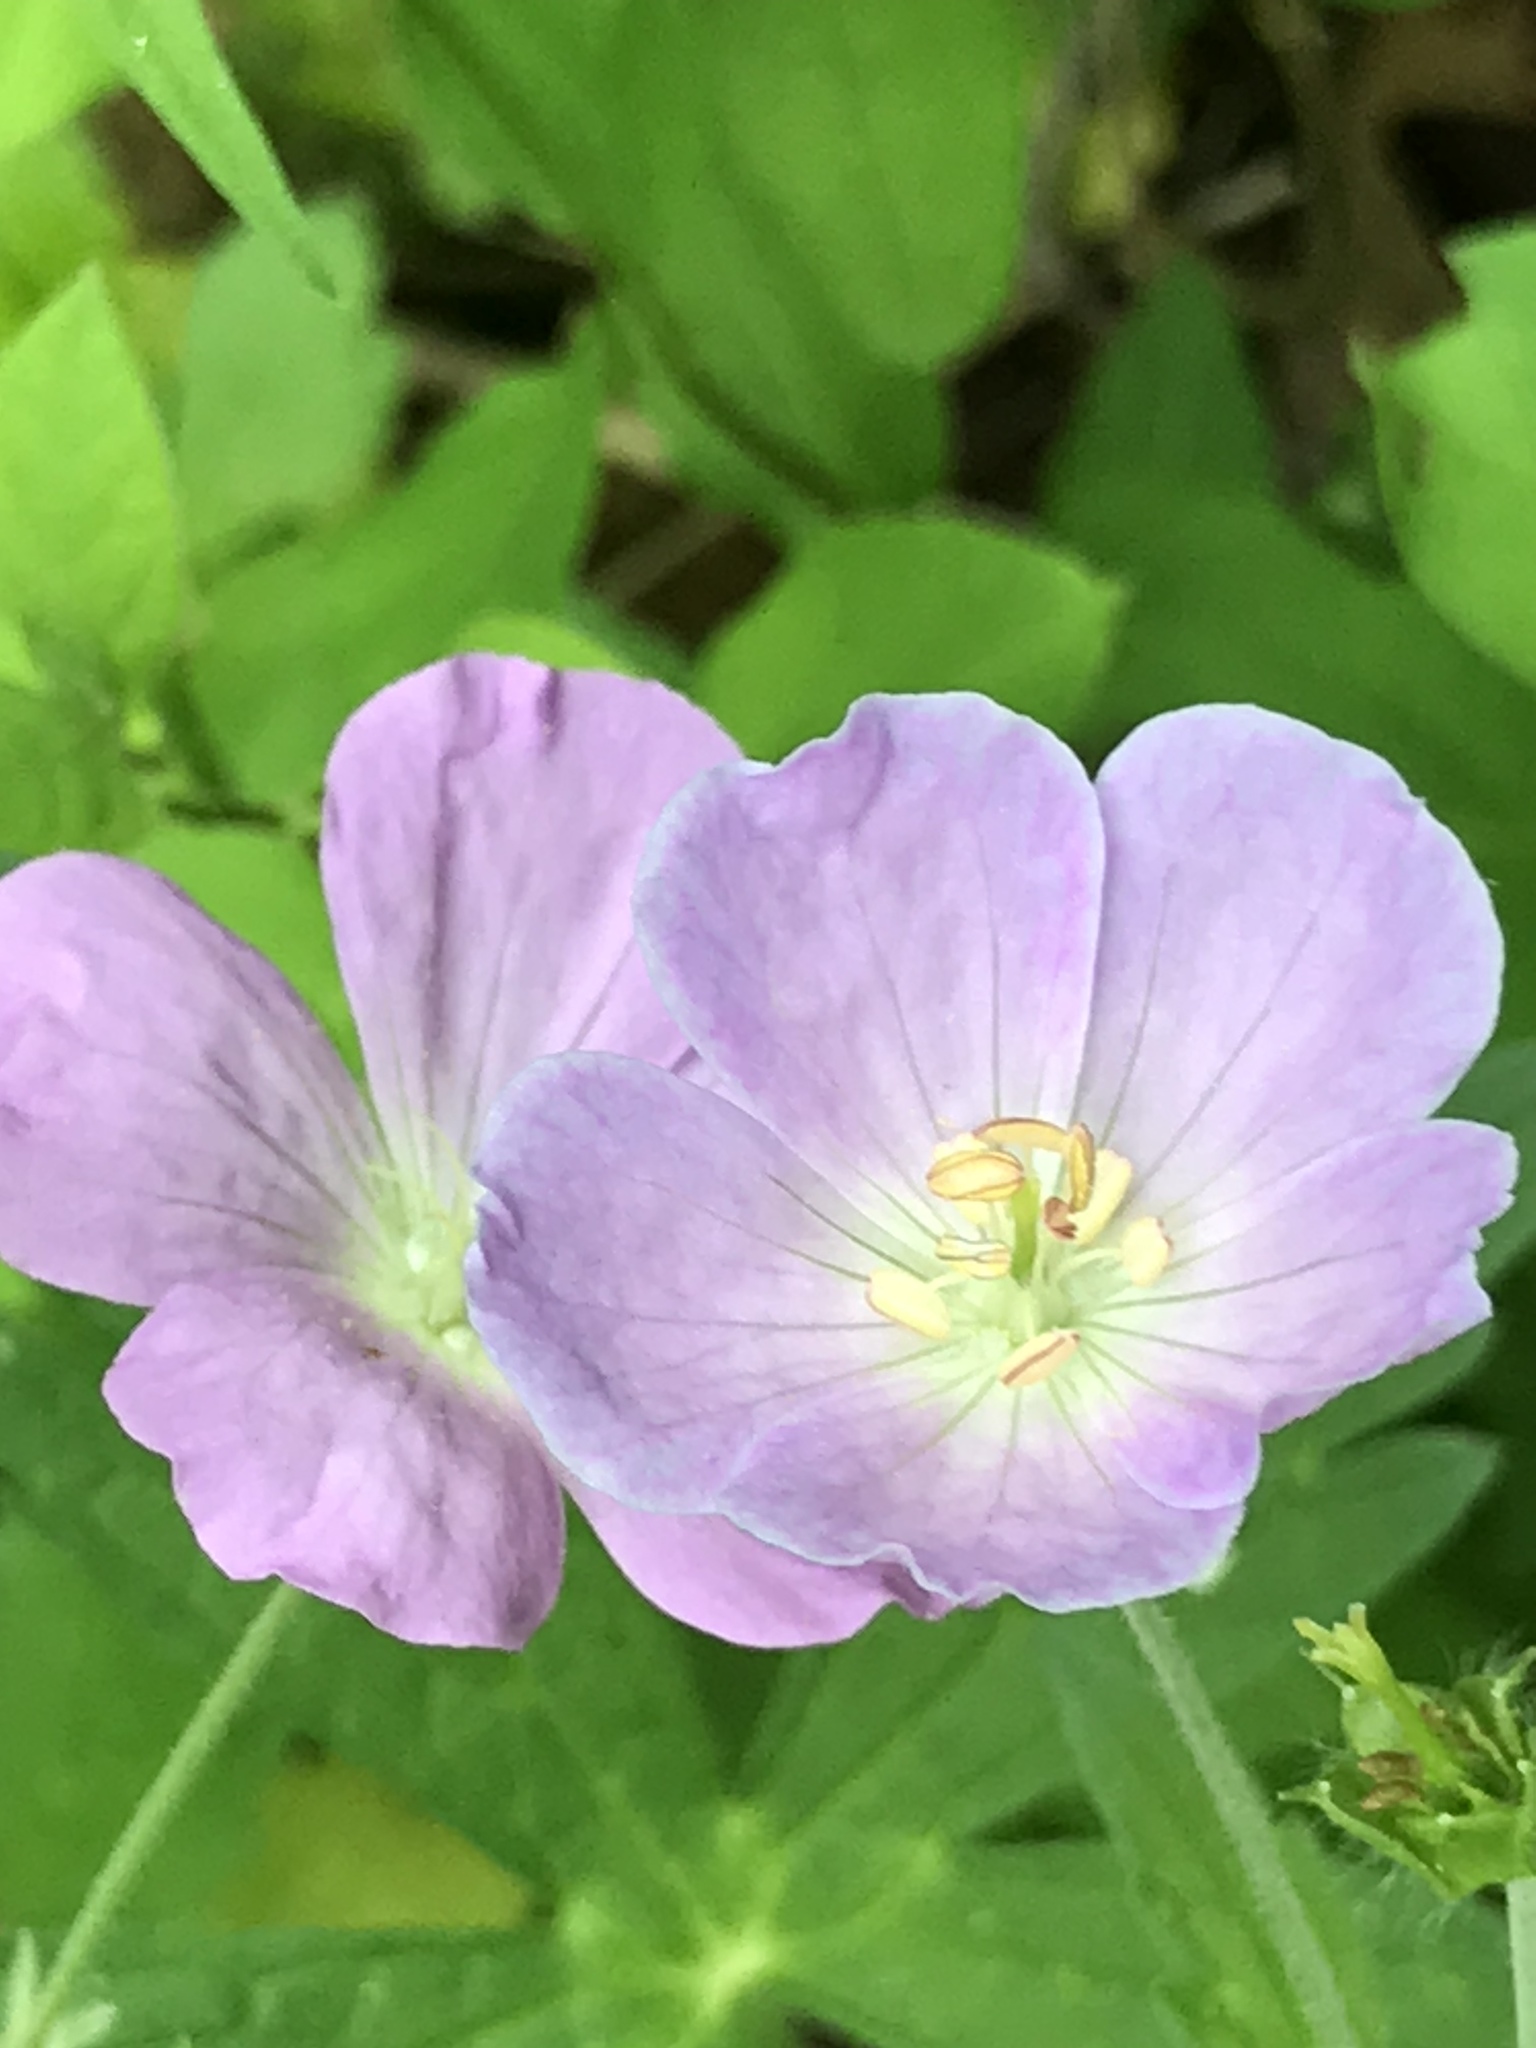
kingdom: Plantae
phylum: Tracheophyta
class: Magnoliopsida
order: Geraniales
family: Geraniaceae
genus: Geranium
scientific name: Geranium maculatum
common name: Spotted geranium
